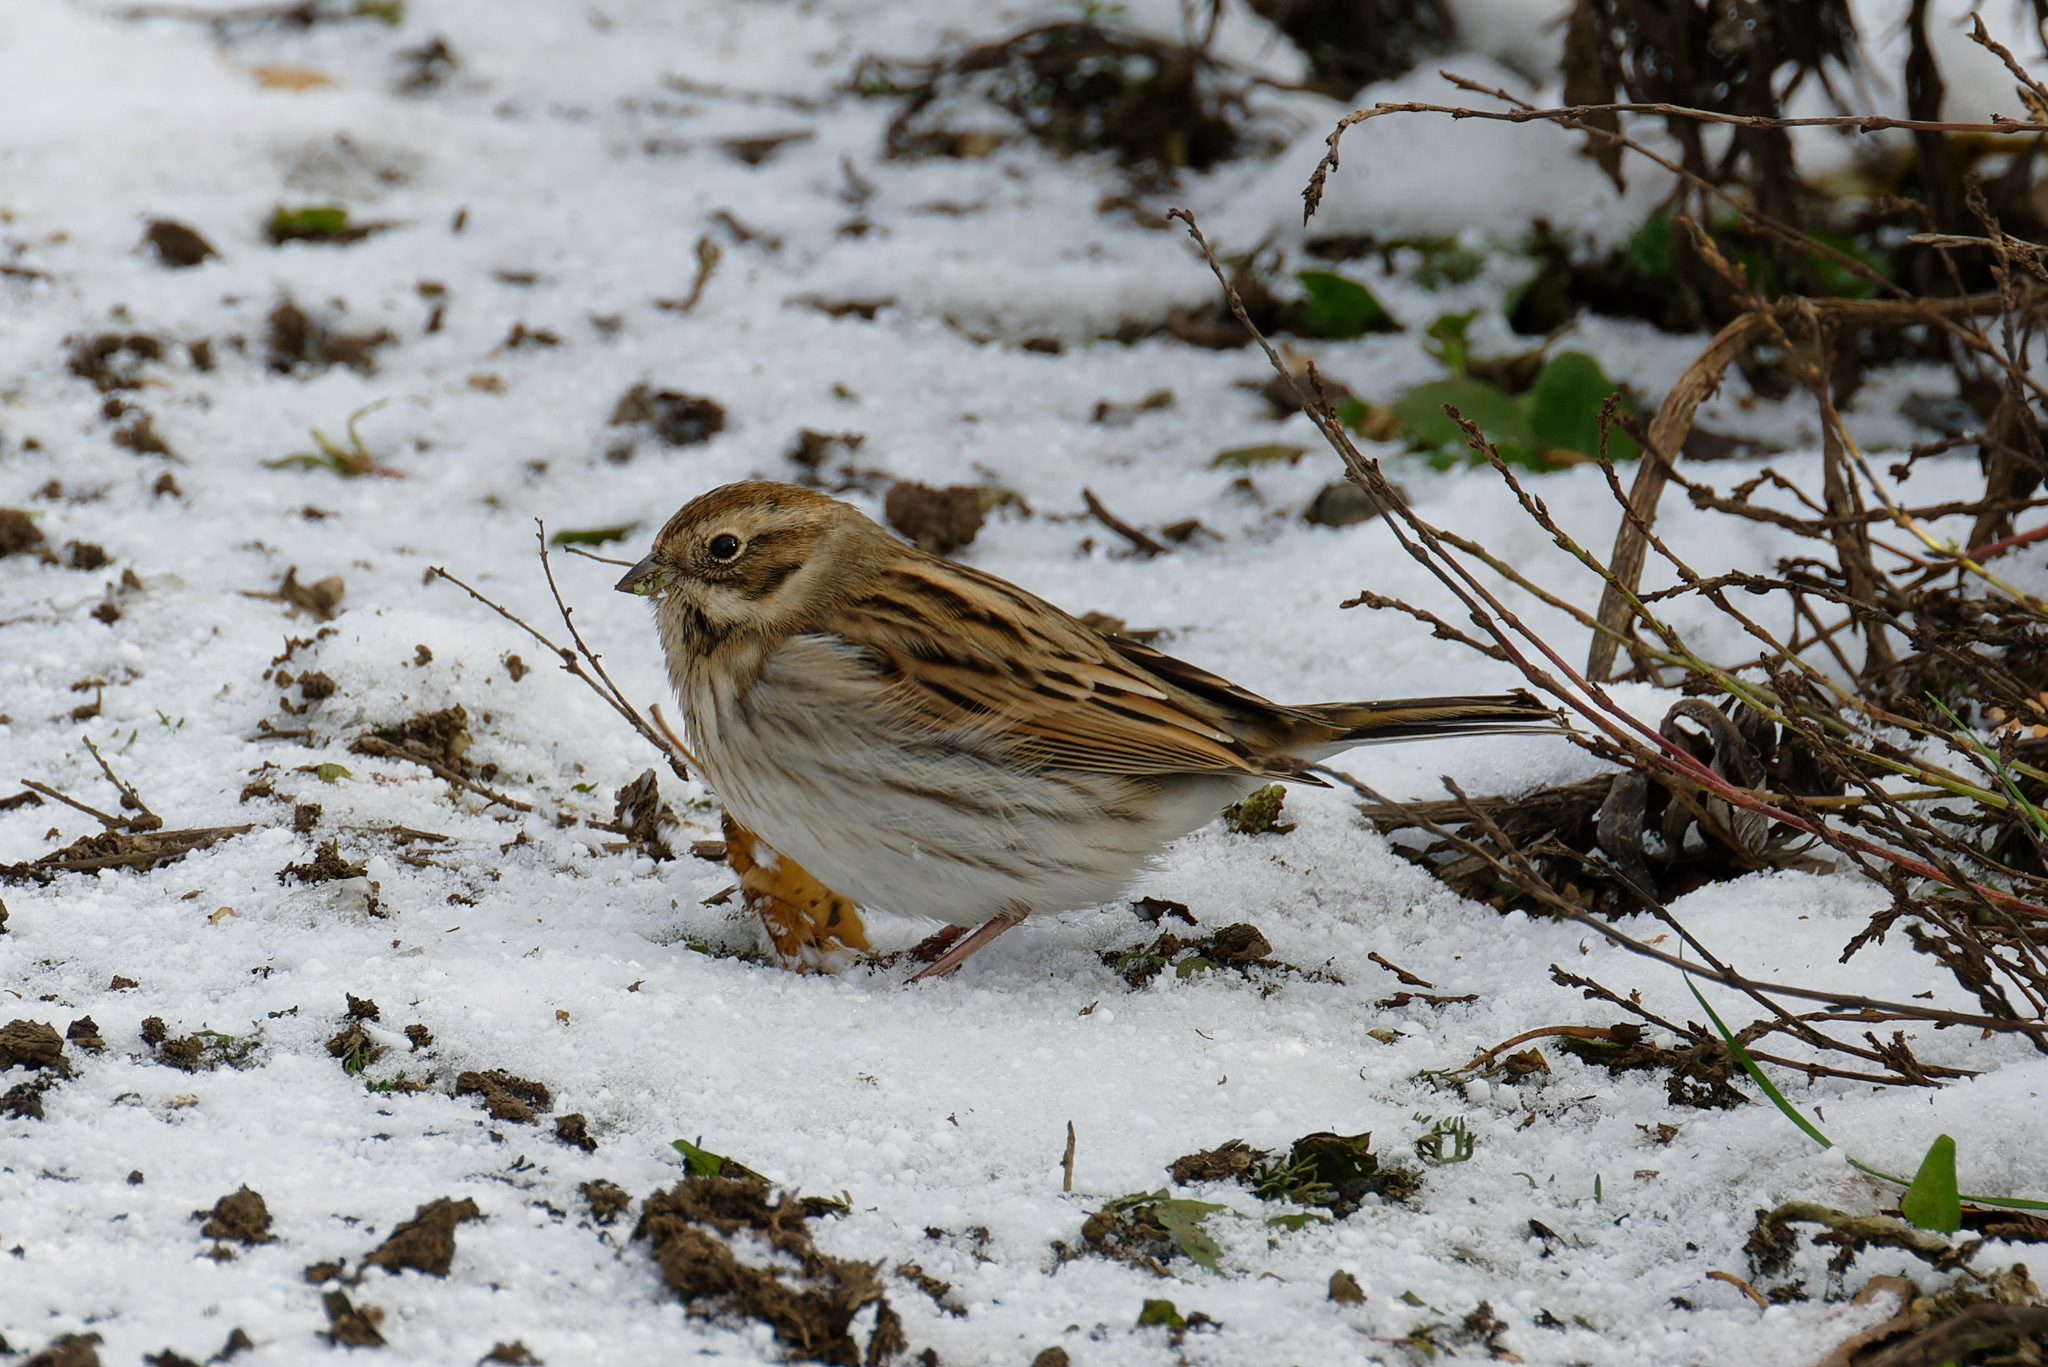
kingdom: Animalia
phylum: Chordata
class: Aves
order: Passeriformes
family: Emberizidae
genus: Emberiza
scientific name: Emberiza schoeniclus
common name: Reed bunting
